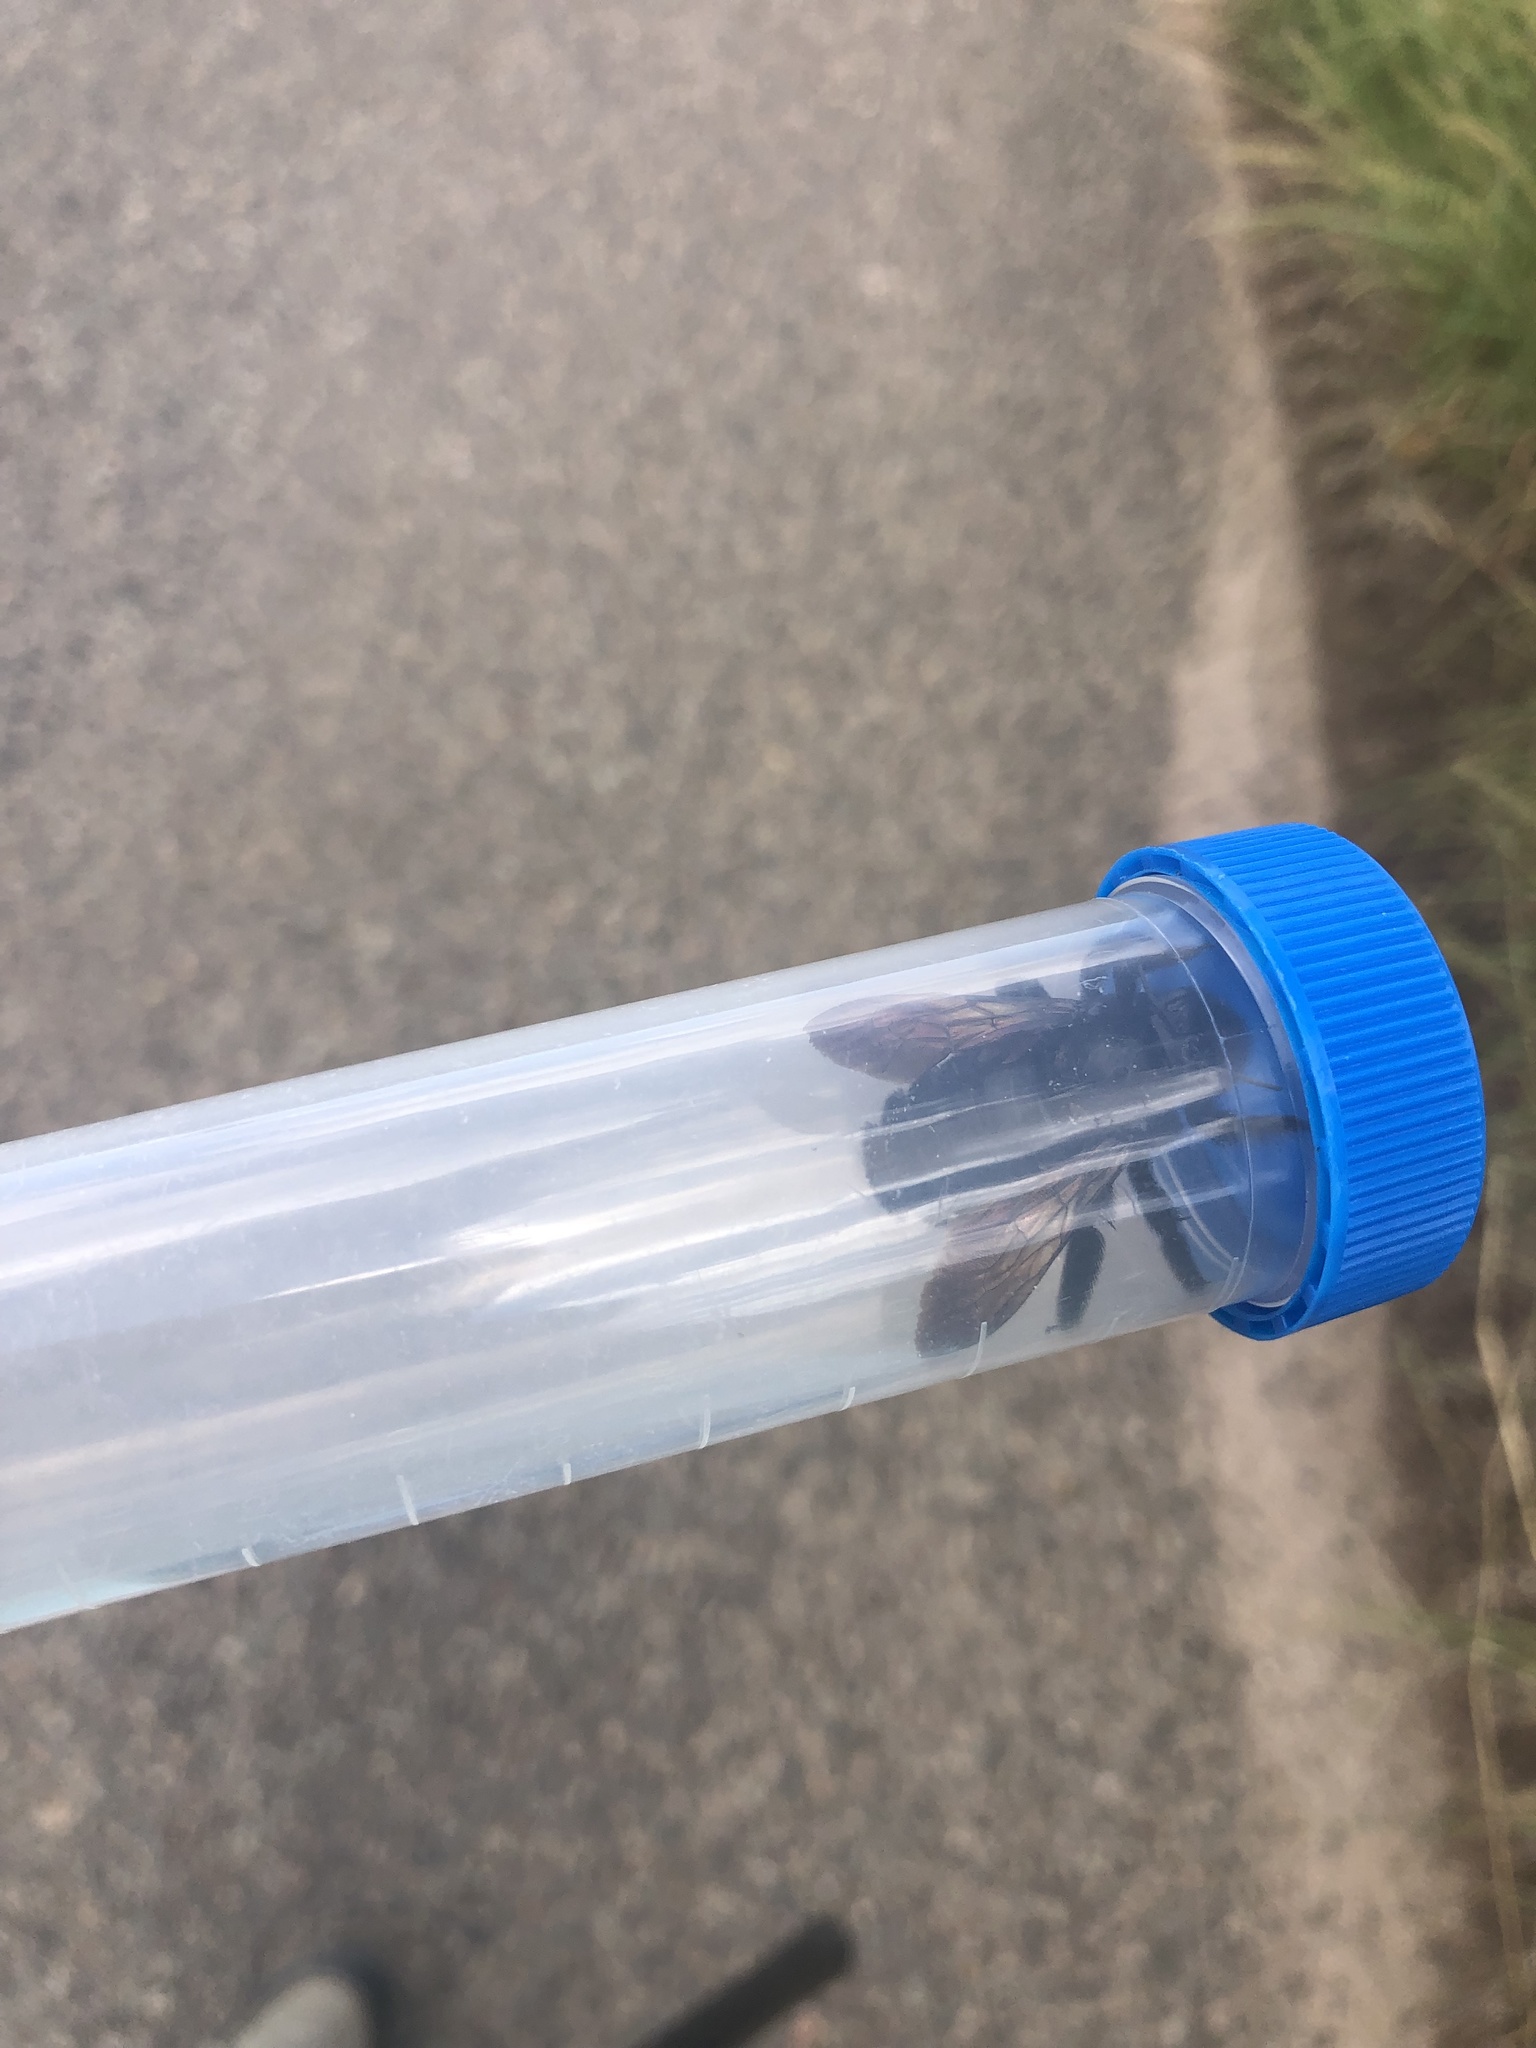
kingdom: Animalia
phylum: Arthropoda
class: Insecta
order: Hymenoptera
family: Apidae
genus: Xylocopa
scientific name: Xylocopa sonorina
